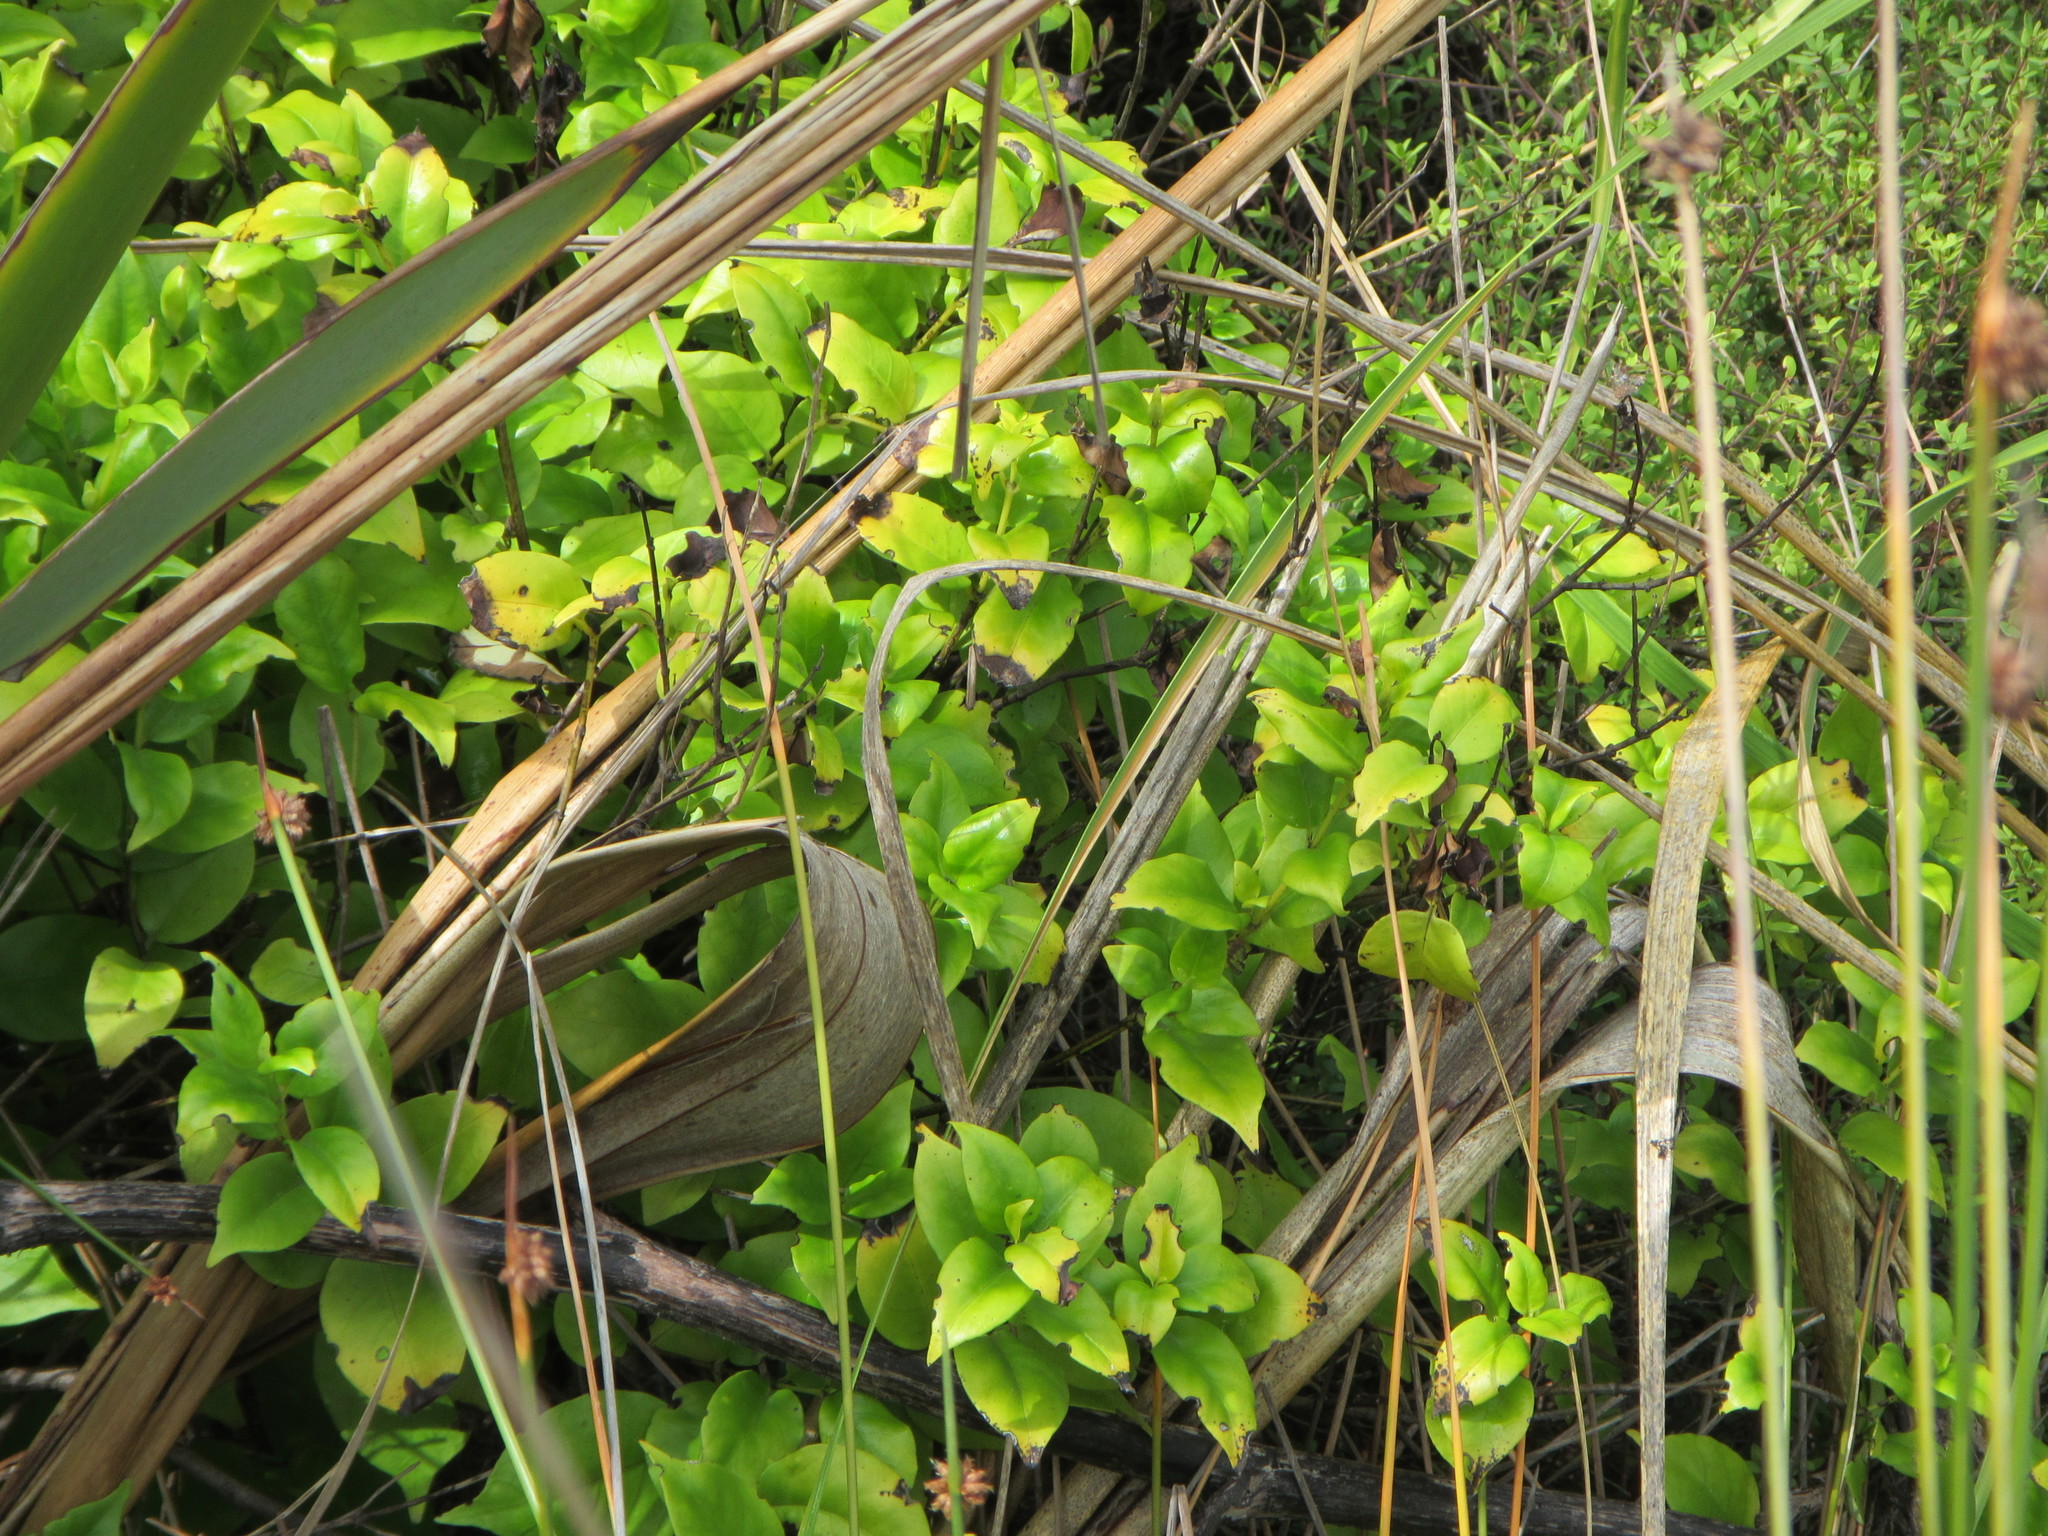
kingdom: Plantae
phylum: Tracheophyta
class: Magnoliopsida
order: Gentianales
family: Loganiaceae
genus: Geniostoma
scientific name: Geniostoma ligustrifolium
